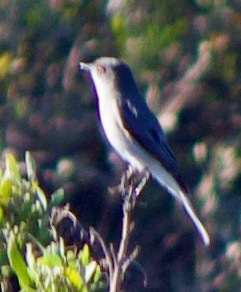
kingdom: Animalia
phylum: Chordata
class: Aves
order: Passeriformes
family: Tyrannidae
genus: Xolmis
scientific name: Xolmis pyrope
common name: Fire-eyed diucon
